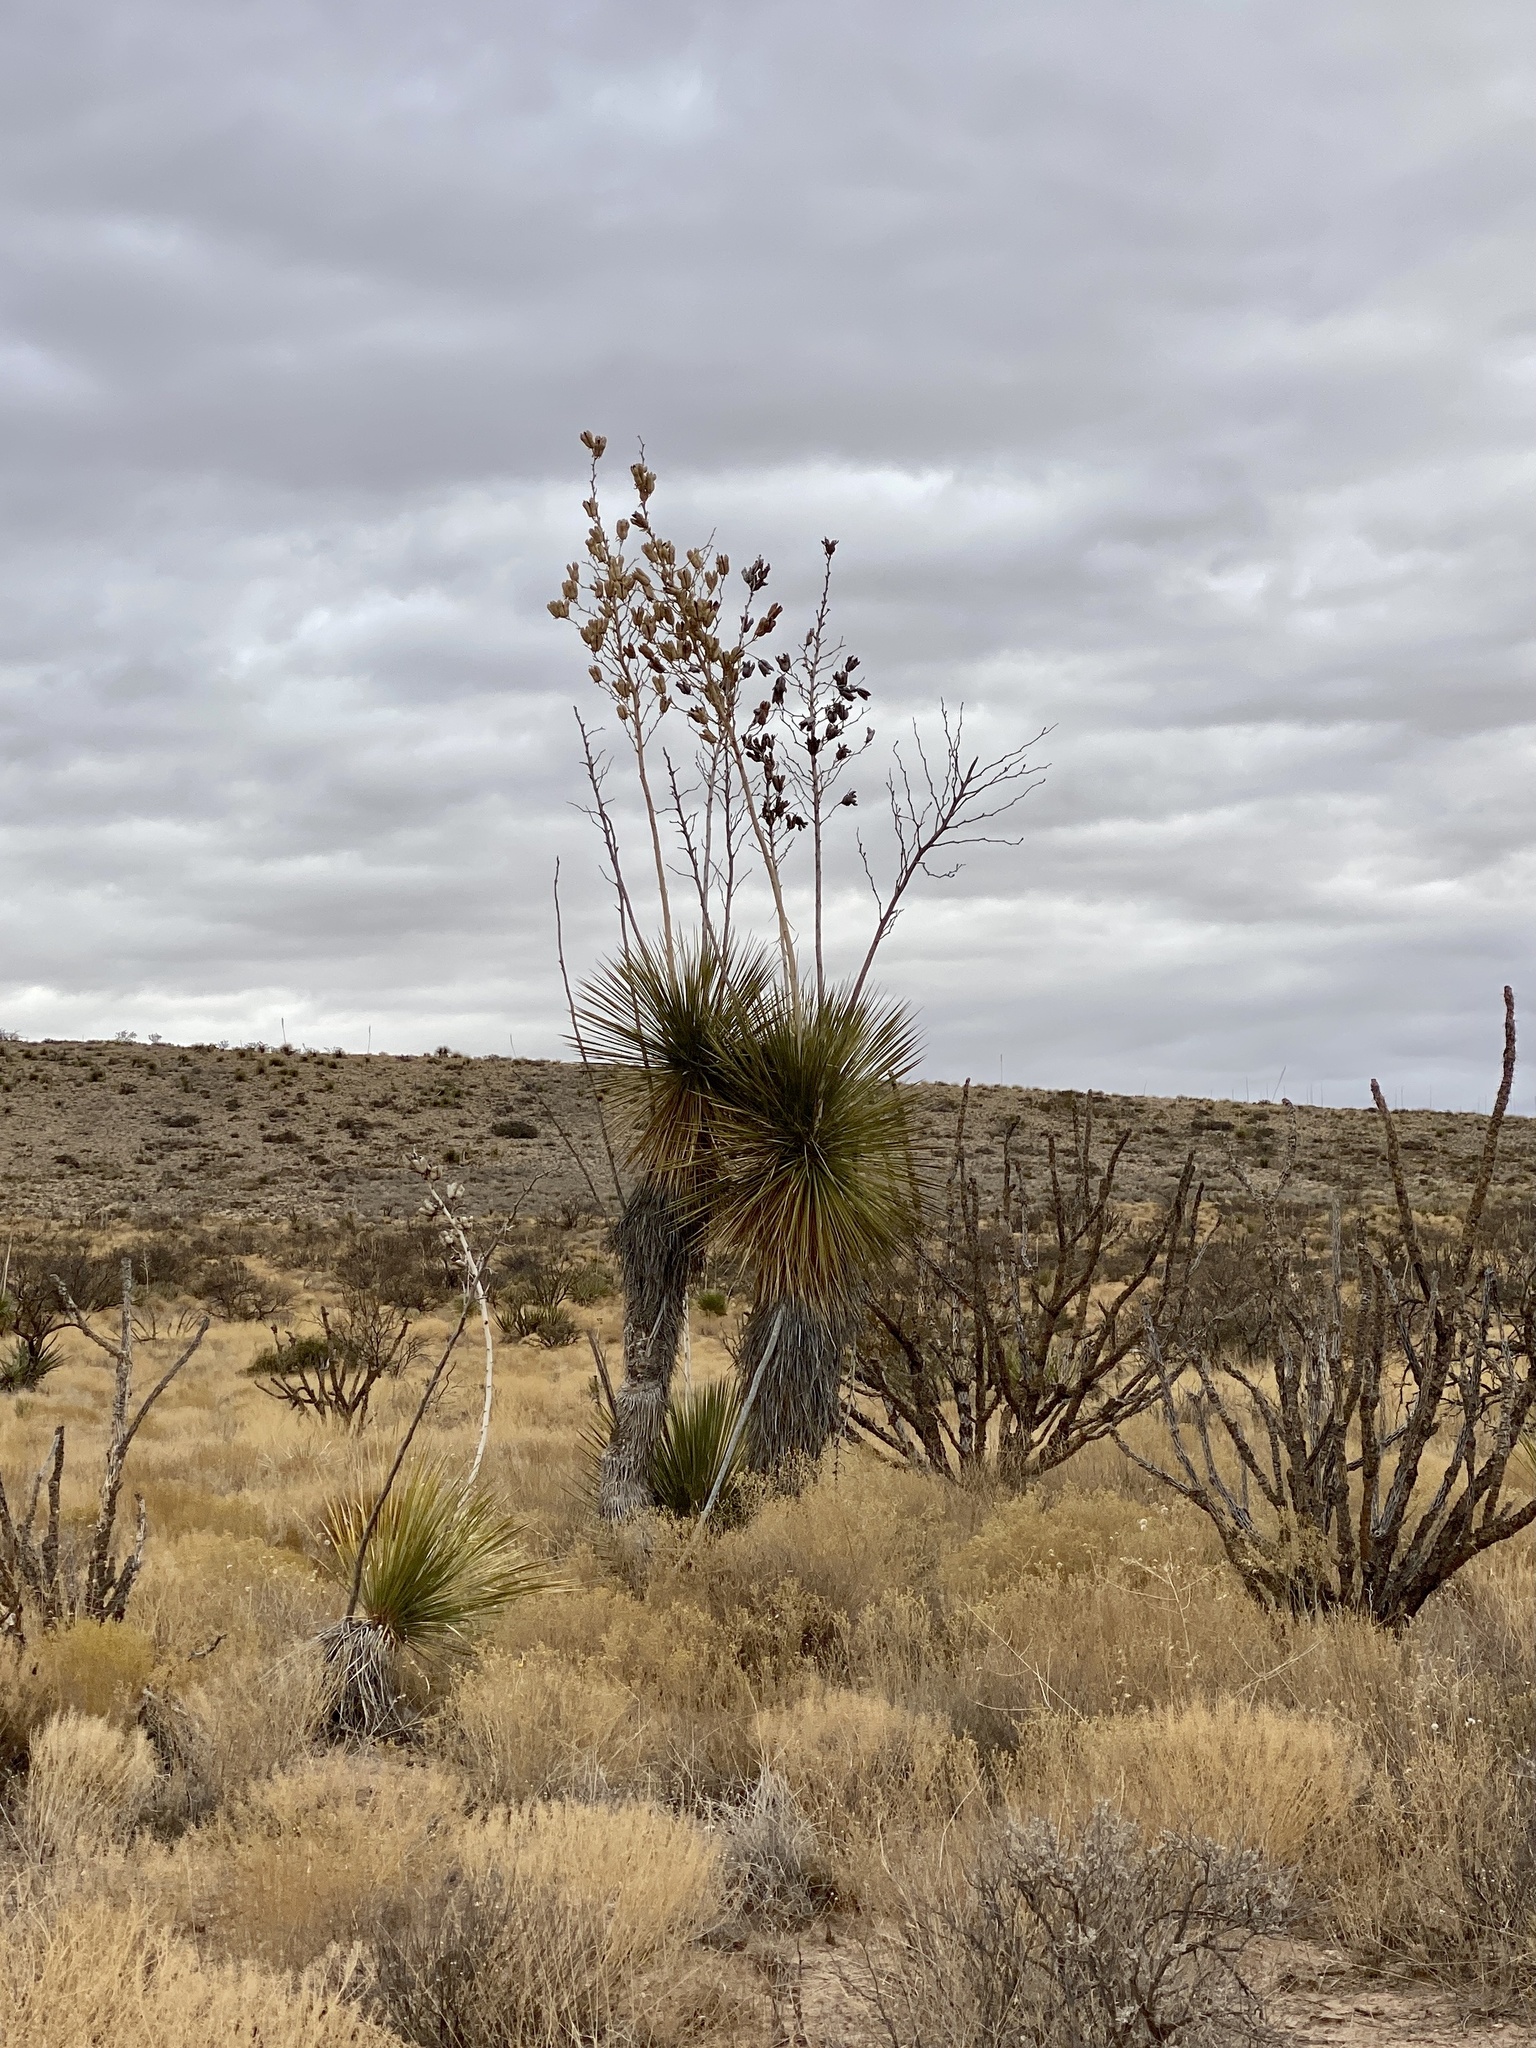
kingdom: Plantae
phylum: Tracheophyta
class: Liliopsida
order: Asparagales
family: Asparagaceae
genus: Yucca
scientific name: Yucca elata
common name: Palmella
